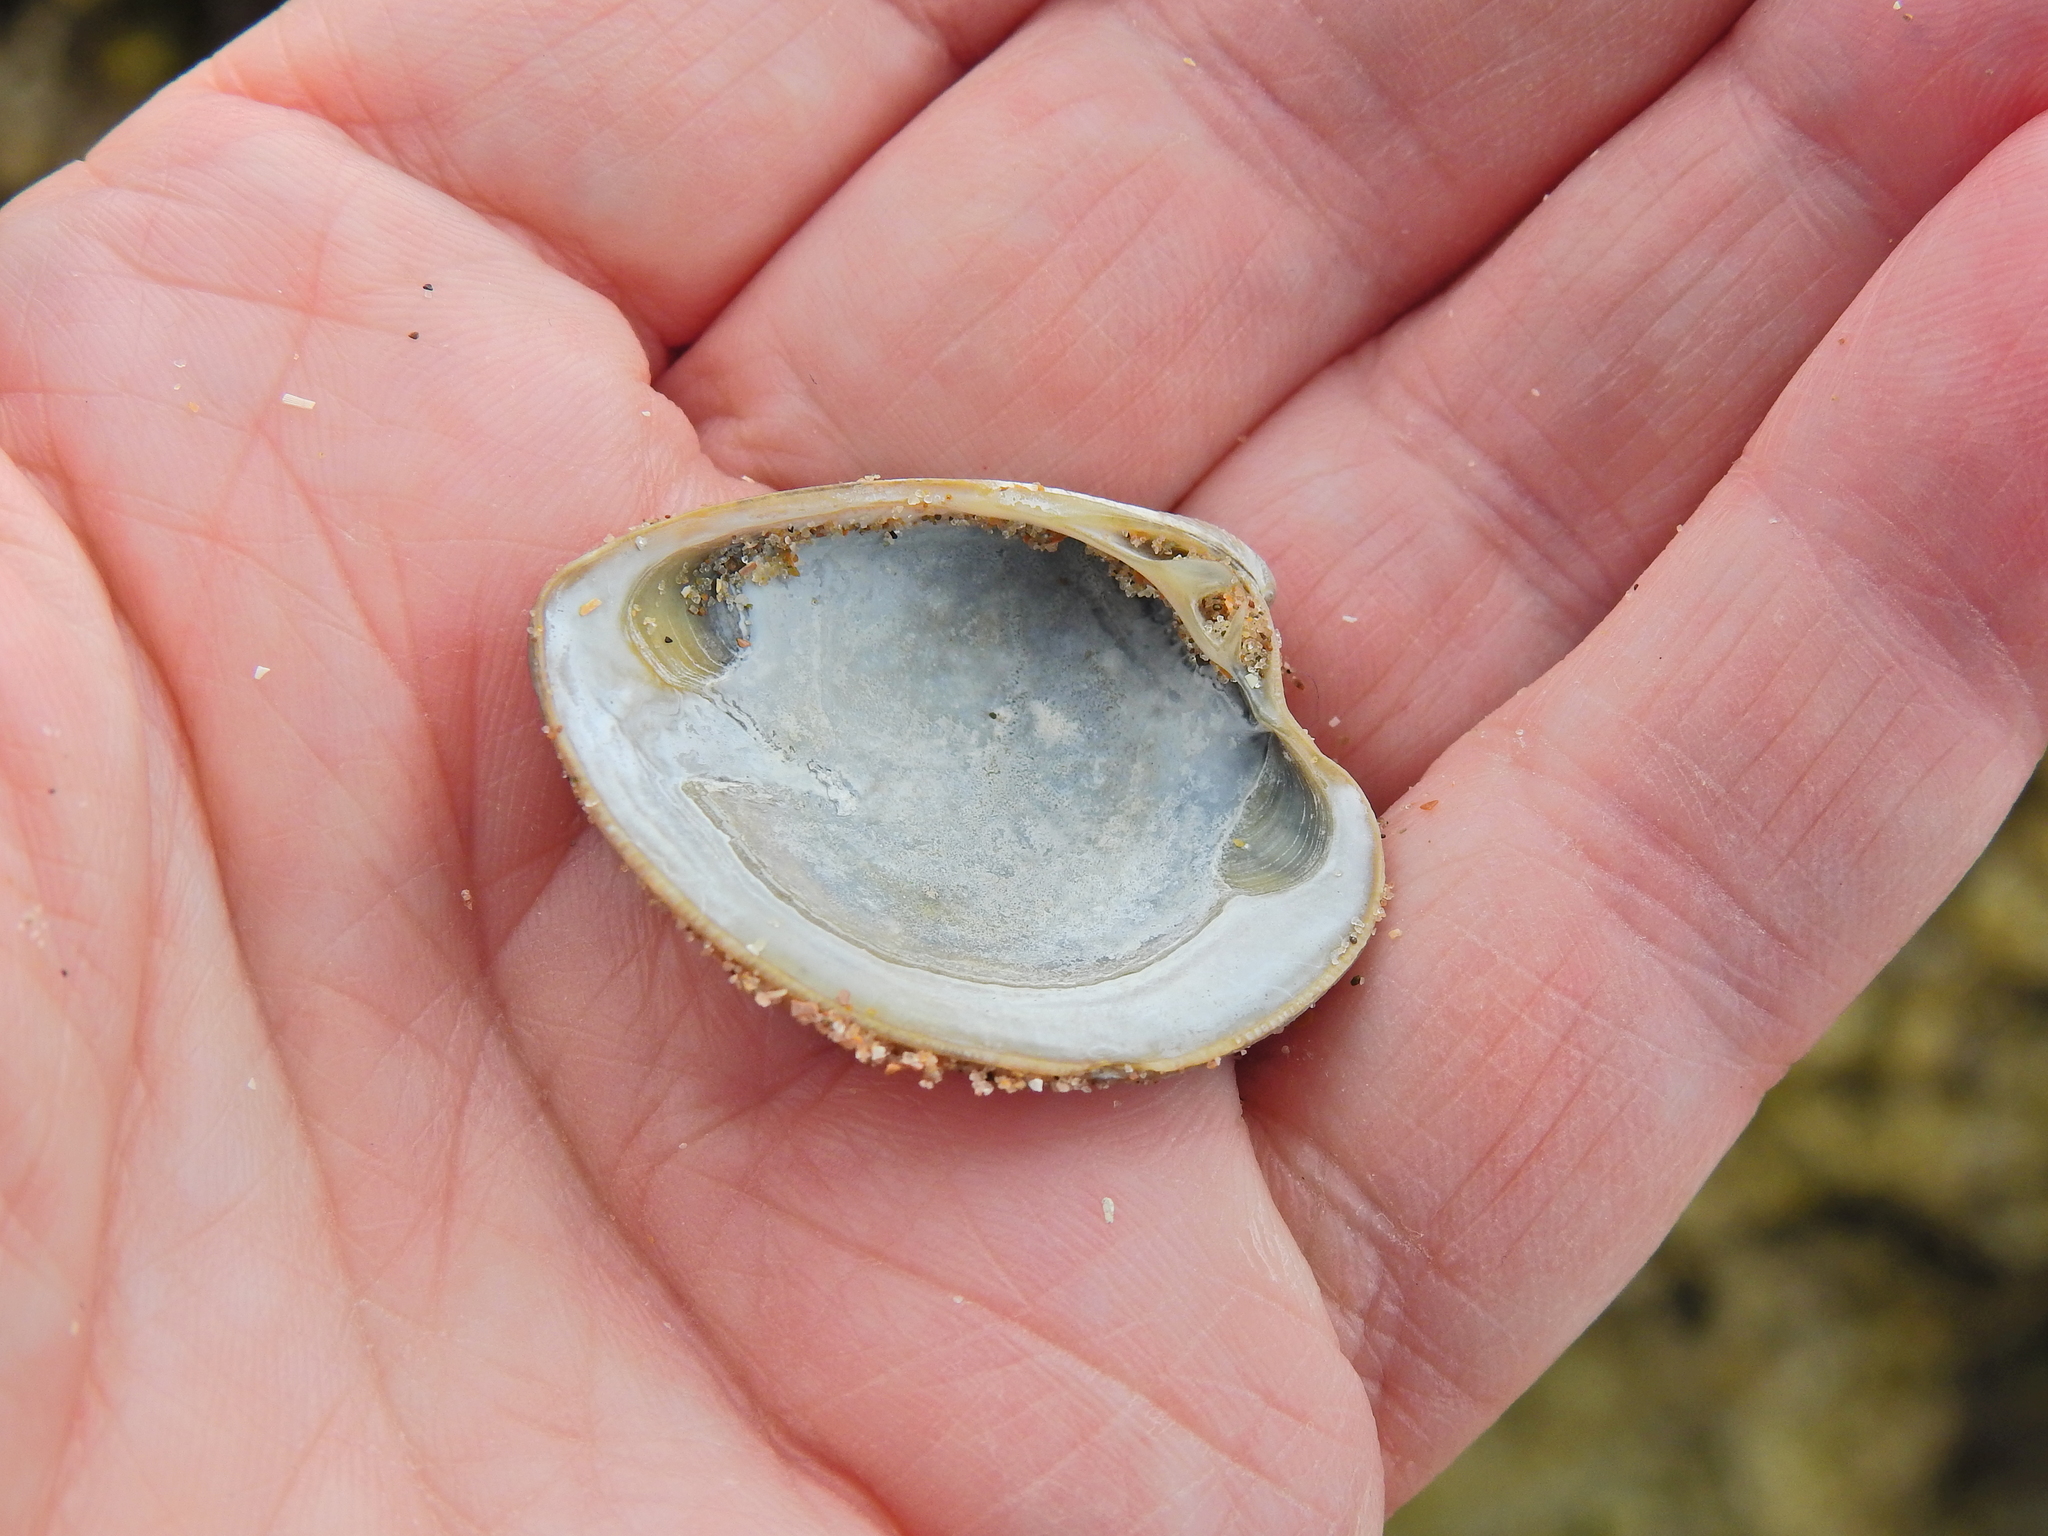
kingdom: Animalia
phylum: Mollusca
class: Bivalvia
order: Venerida
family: Veneridae
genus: Chamelea
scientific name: Chamelea striatula
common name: Striped venus
